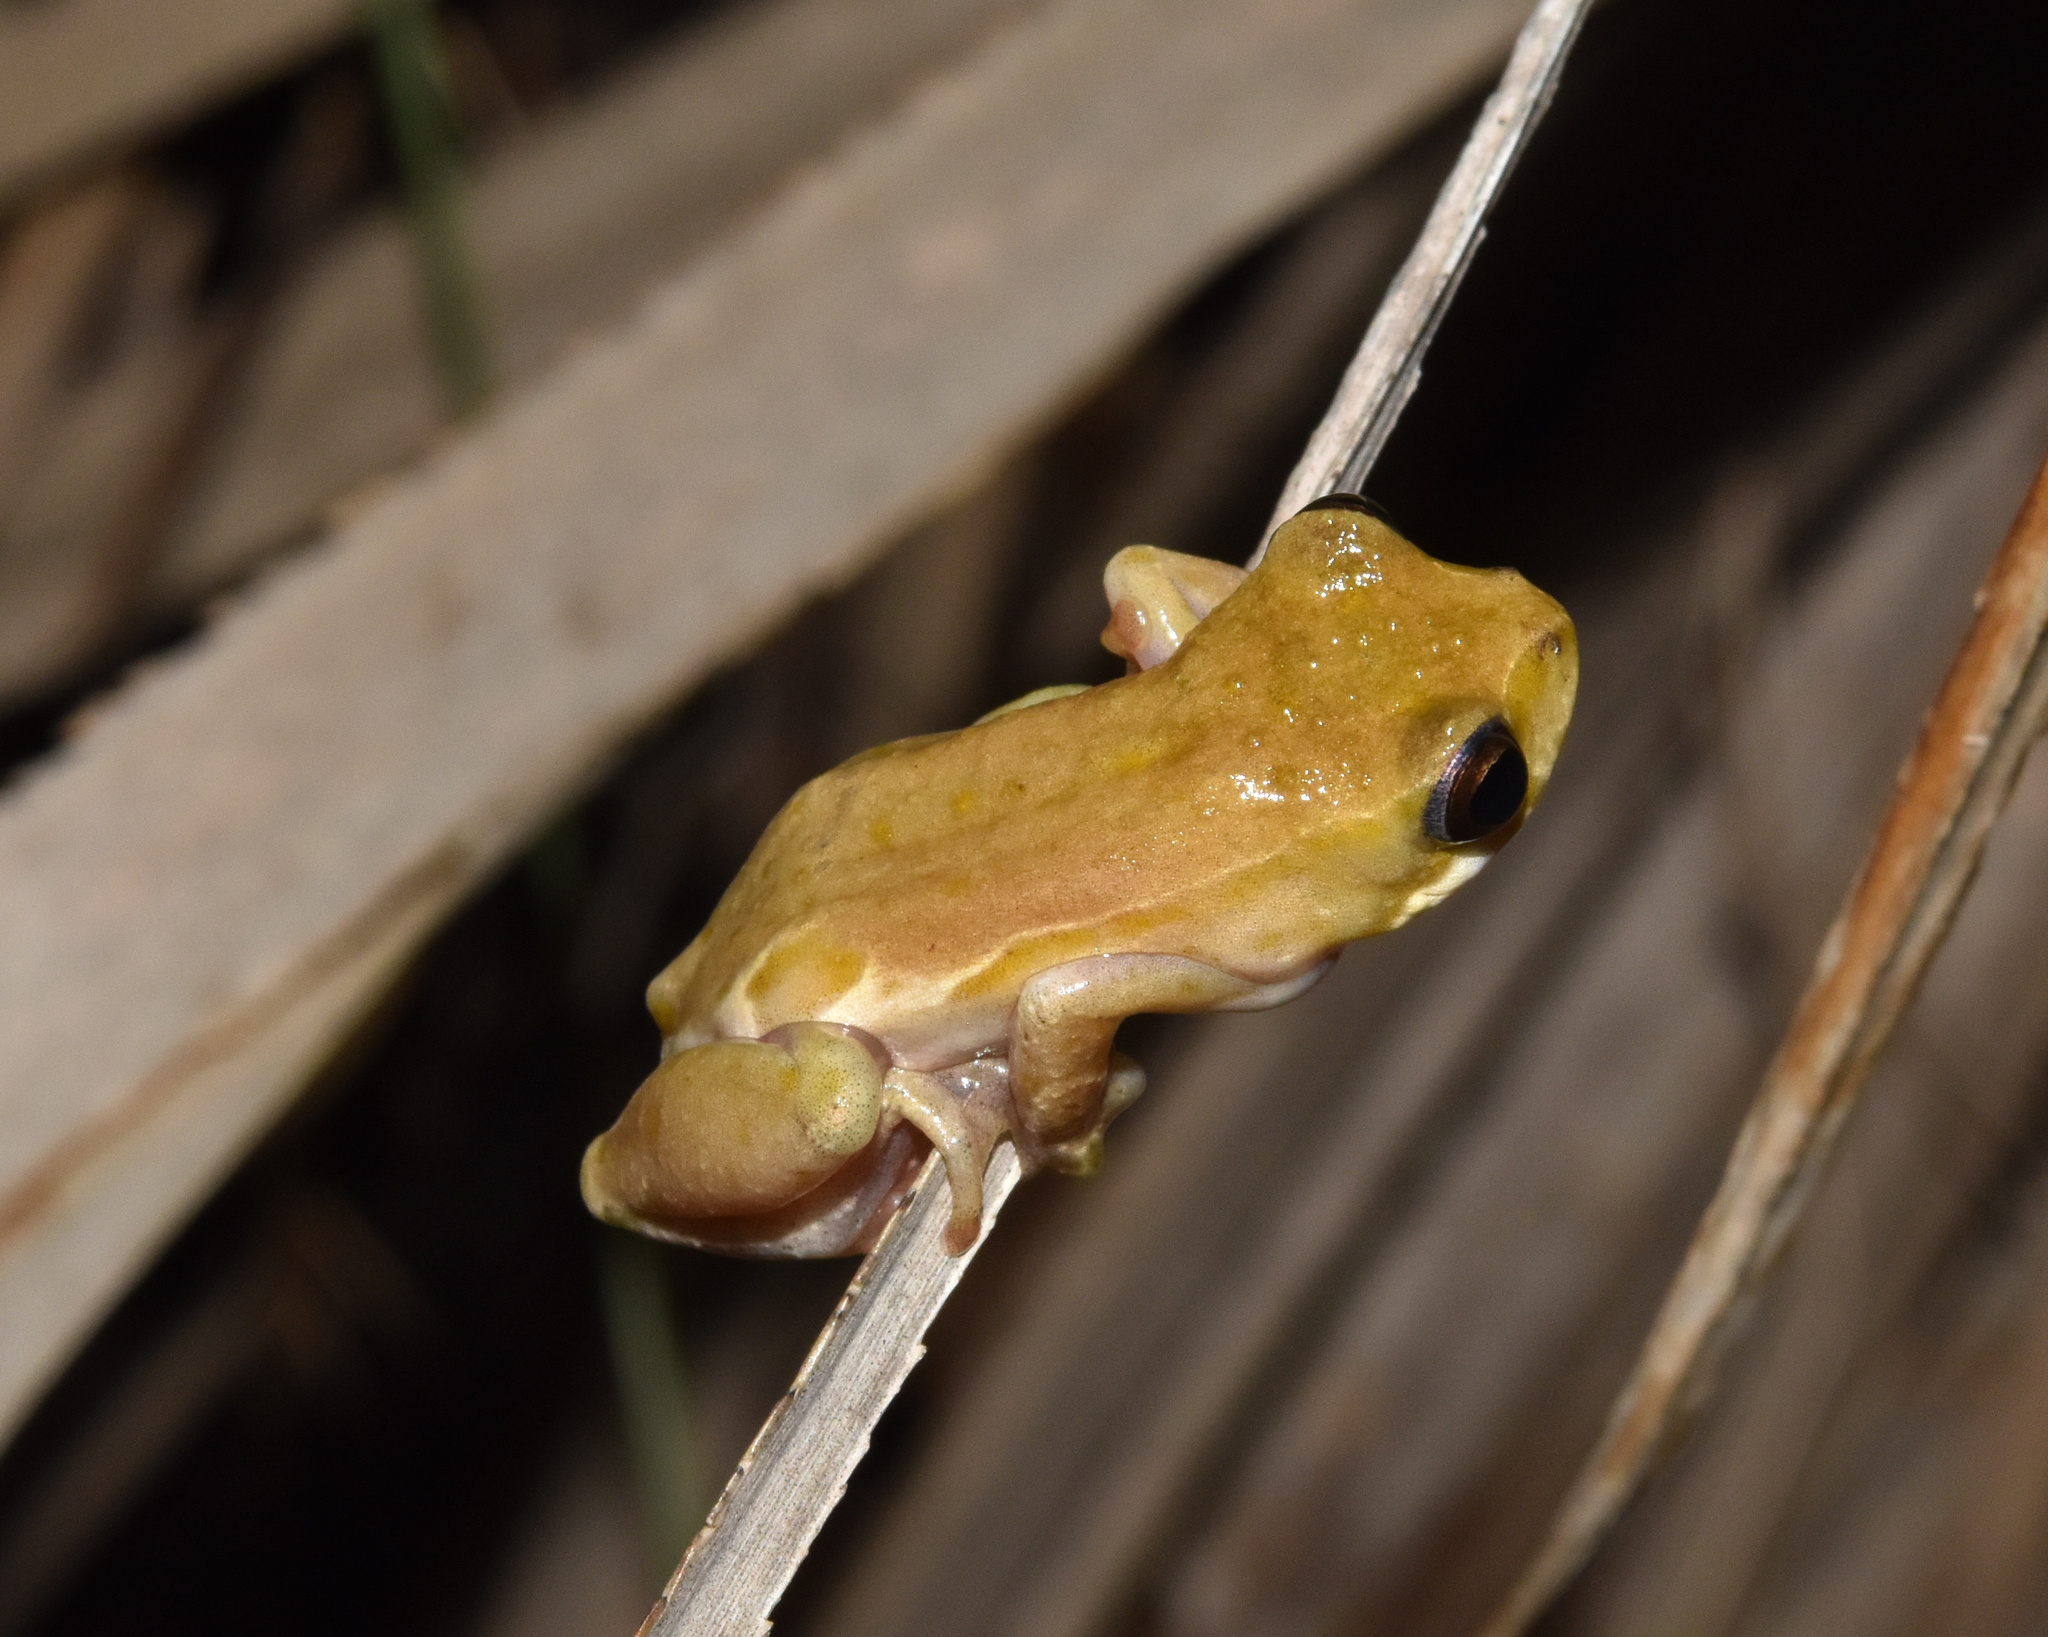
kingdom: Animalia
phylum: Chordata
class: Amphibia
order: Anura
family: Hyperoliidae
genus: Hyperolius
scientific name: Hyperolius marmoratus
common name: Painted reed frog
